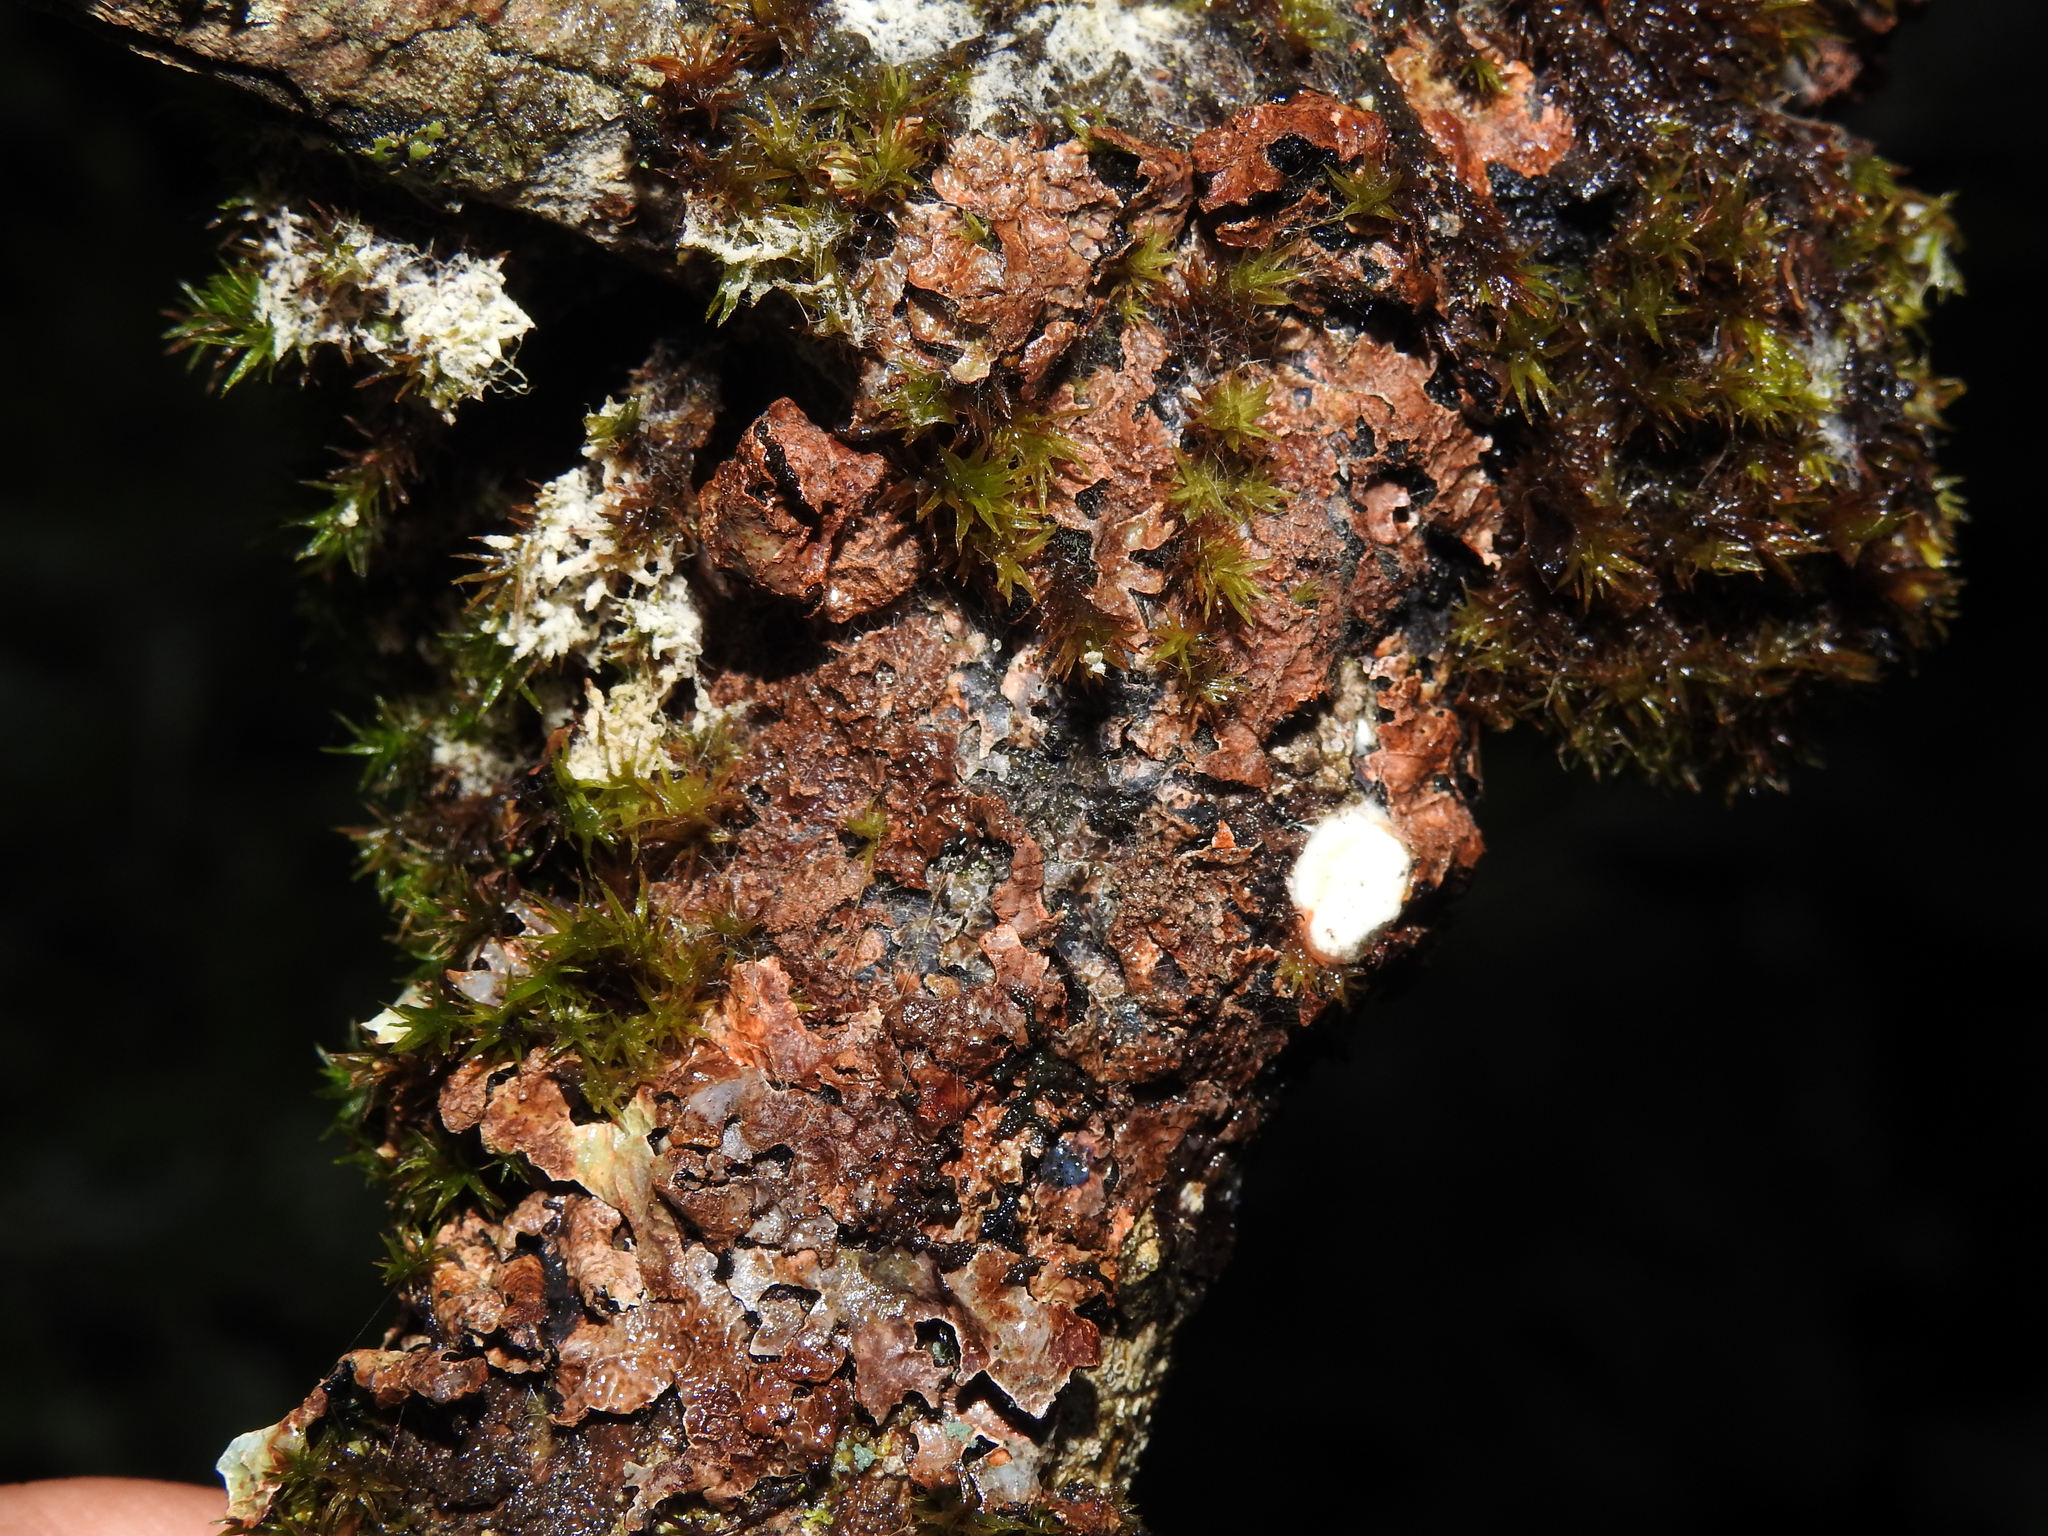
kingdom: Fungi
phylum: Ascomycota
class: Lecanoromycetes
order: Lecanorales
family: Parmeliaceae
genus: Parmelia
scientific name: Parmelia sulcata
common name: Netted shield lichen
